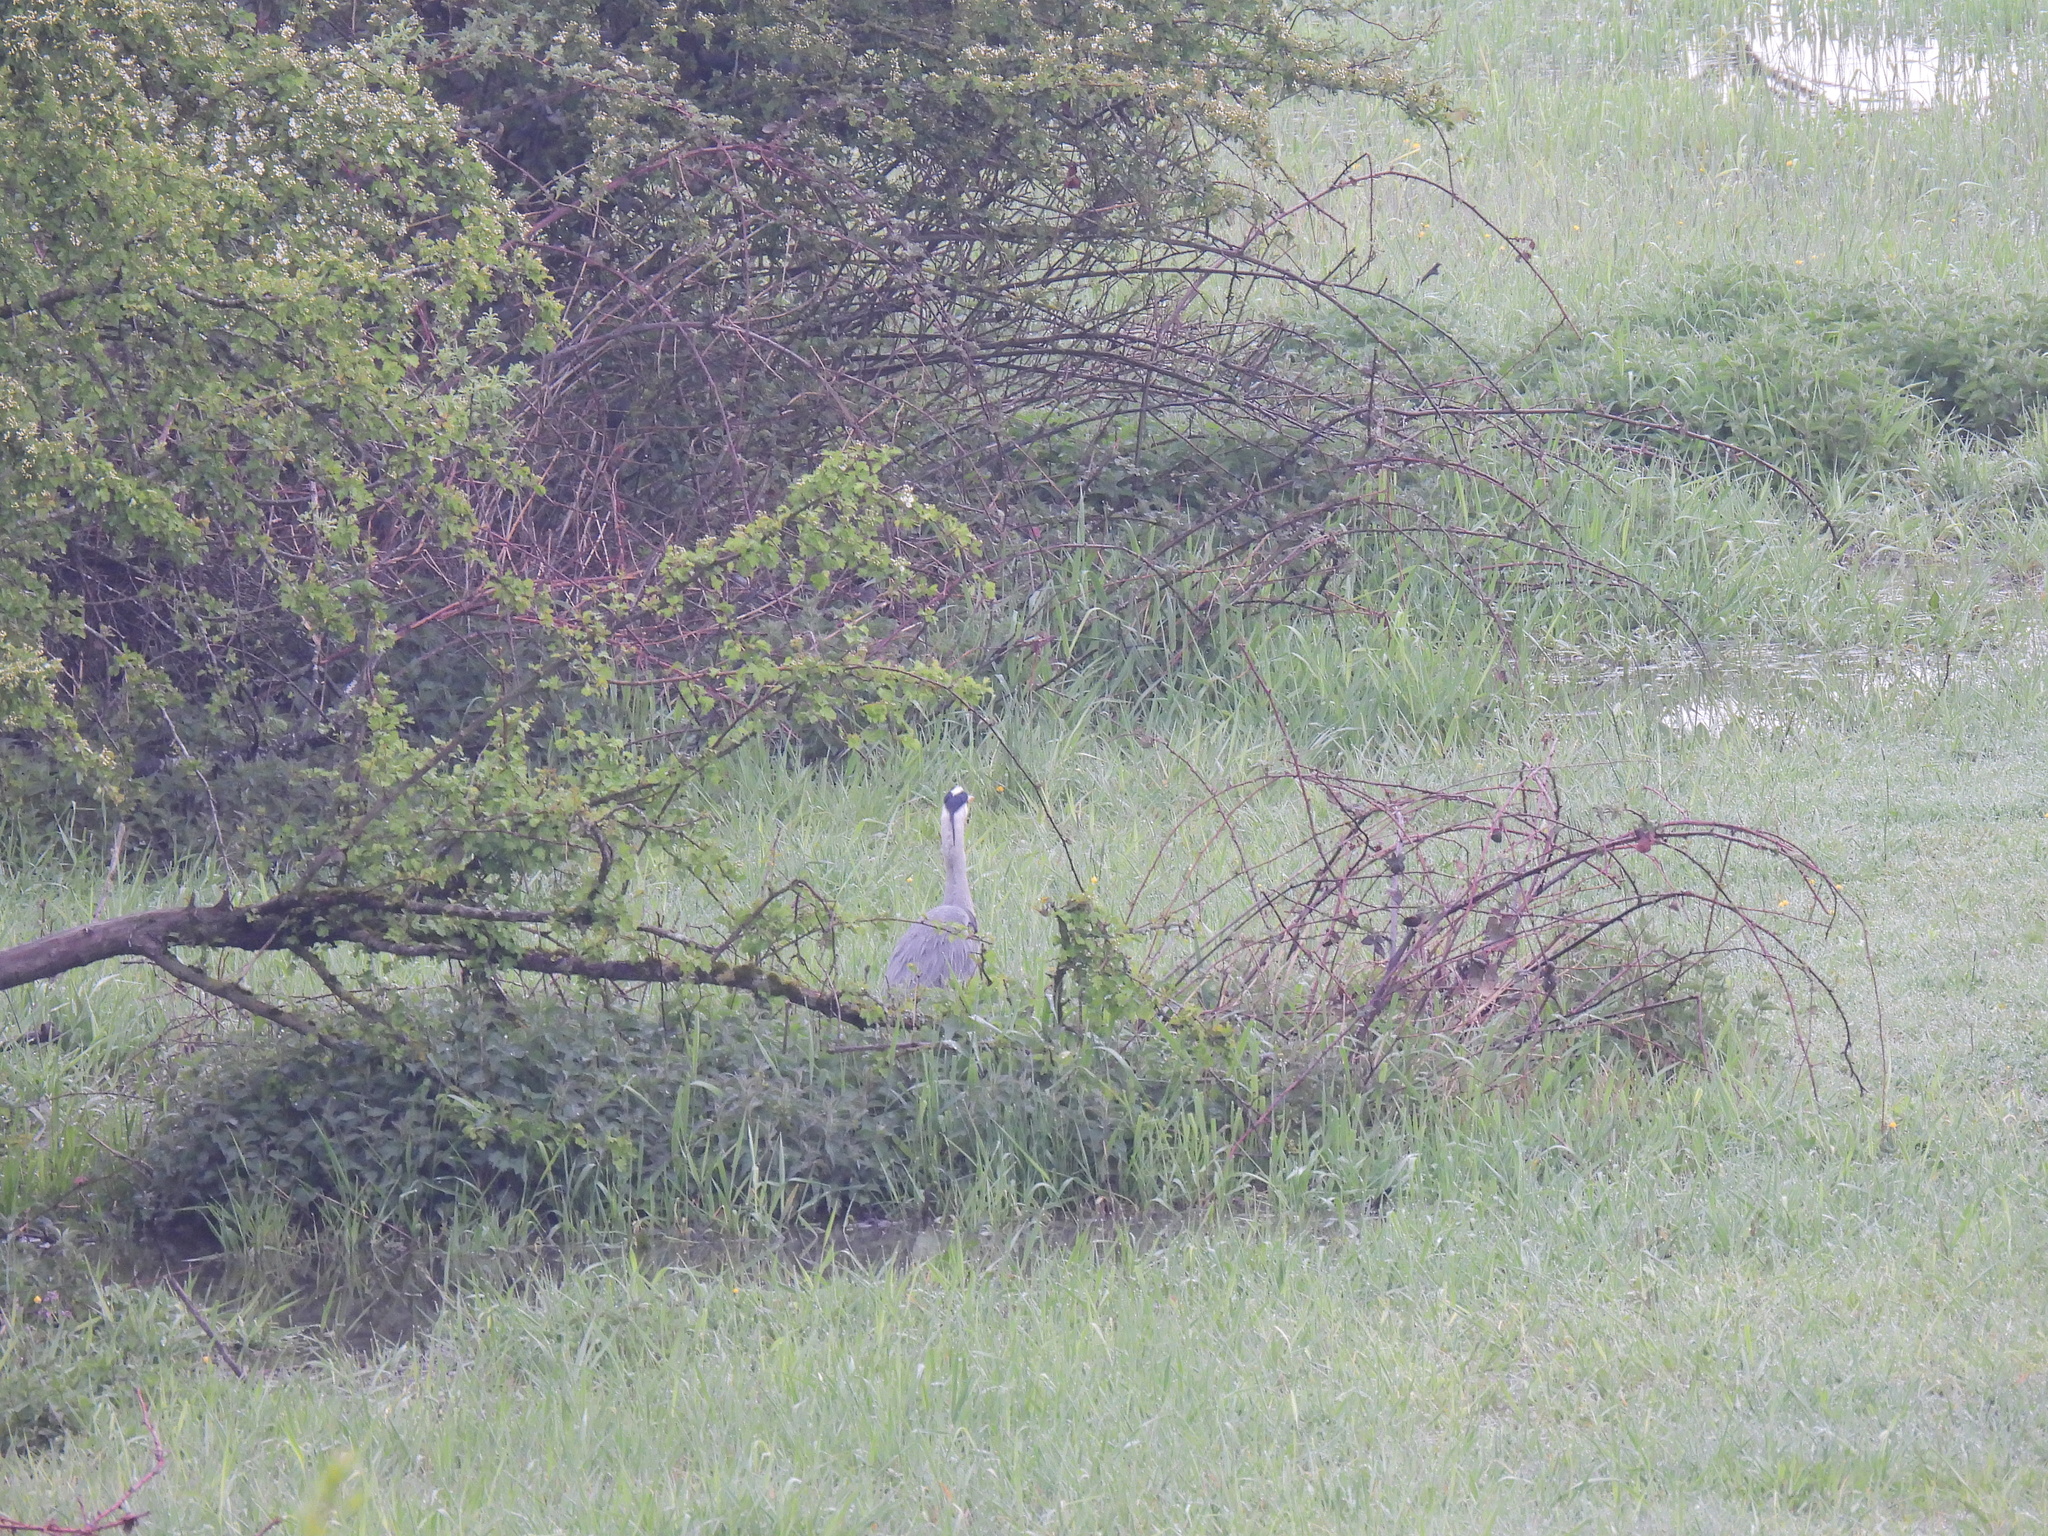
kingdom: Animalia
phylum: Chordata
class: Aves
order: Pelecaniformes
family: Ardeidae
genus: Ardea
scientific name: Ardea cinerea
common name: Grey heron
